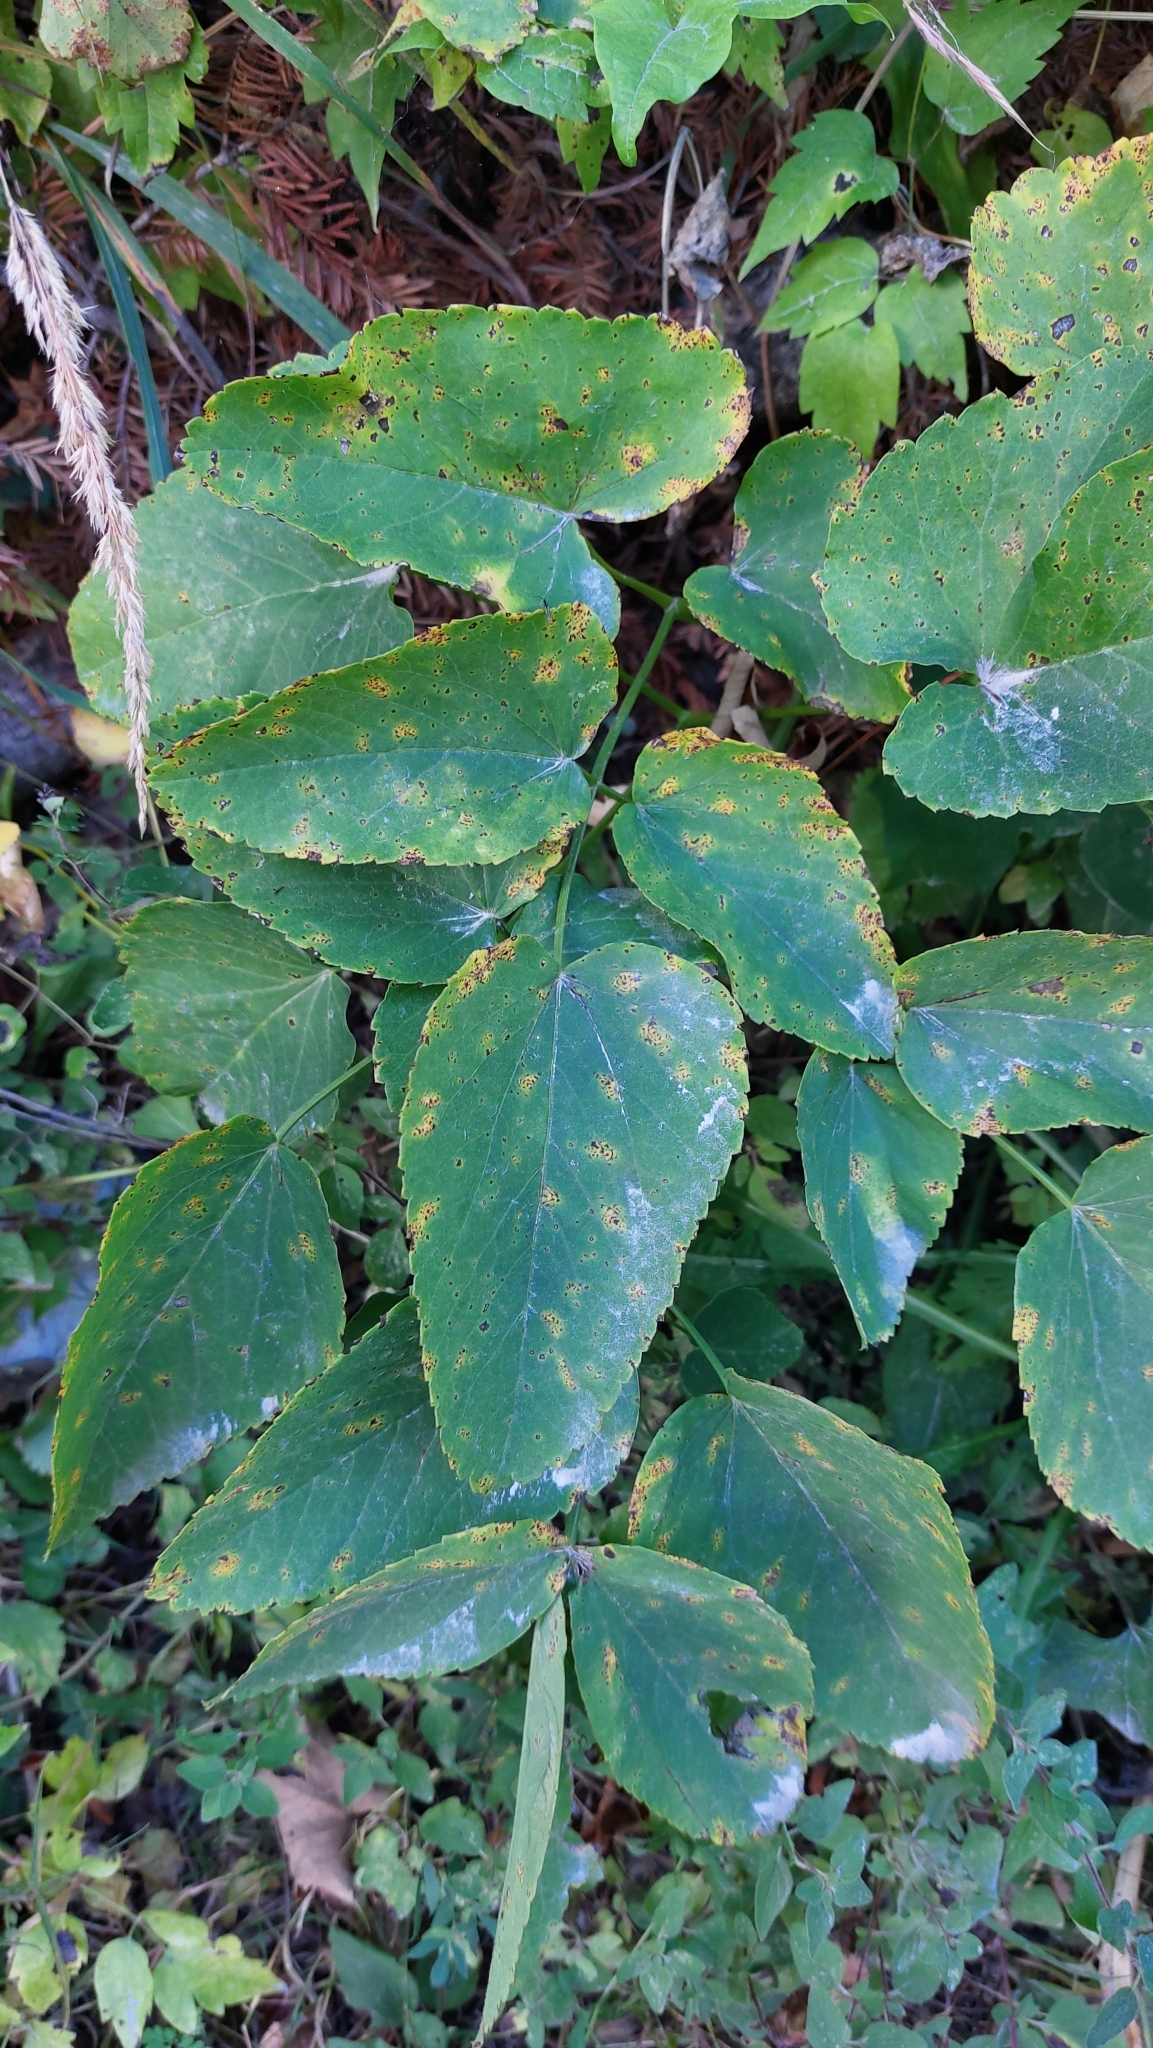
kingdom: Plantae
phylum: Tracheophyta
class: Magnoliopsida
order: Apiales
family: Apiaceae
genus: Laserpitium
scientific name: Laserpitium latifolium
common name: Broadleaf sermountain
